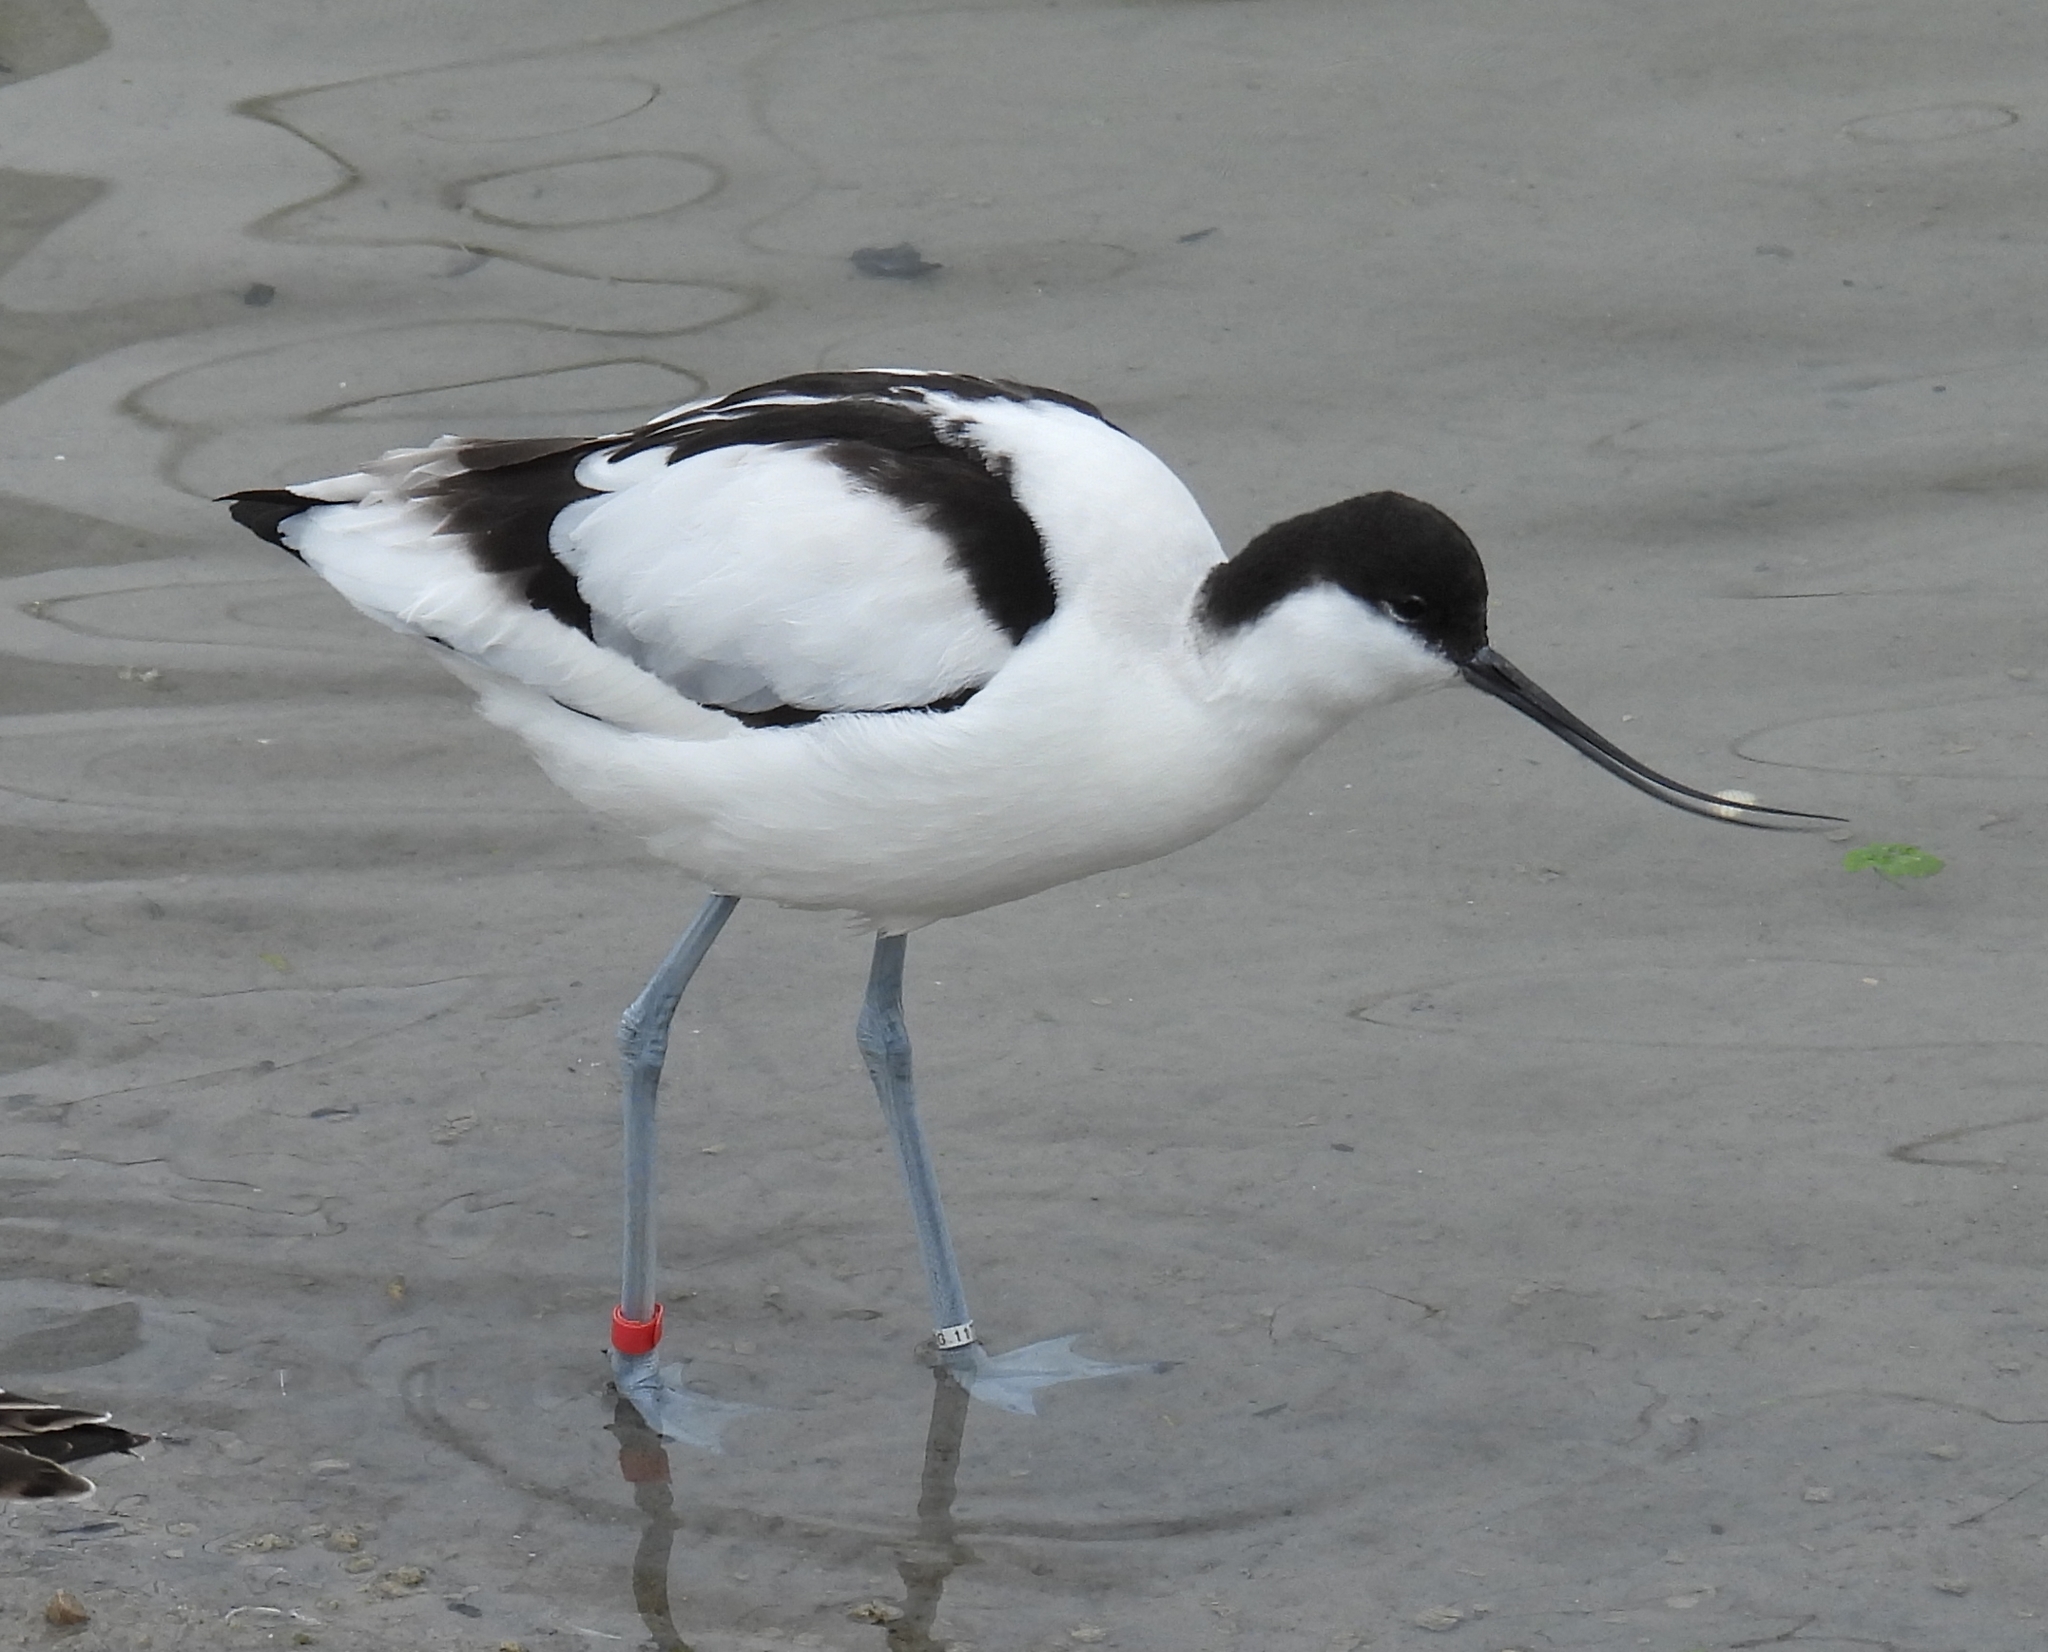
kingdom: Animalia
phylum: Chordata
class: Aves
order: Charadriiformes
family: Recurvirostridae
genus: Recurvirostra
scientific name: Recurvirostra avosetta
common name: Pied avocet
